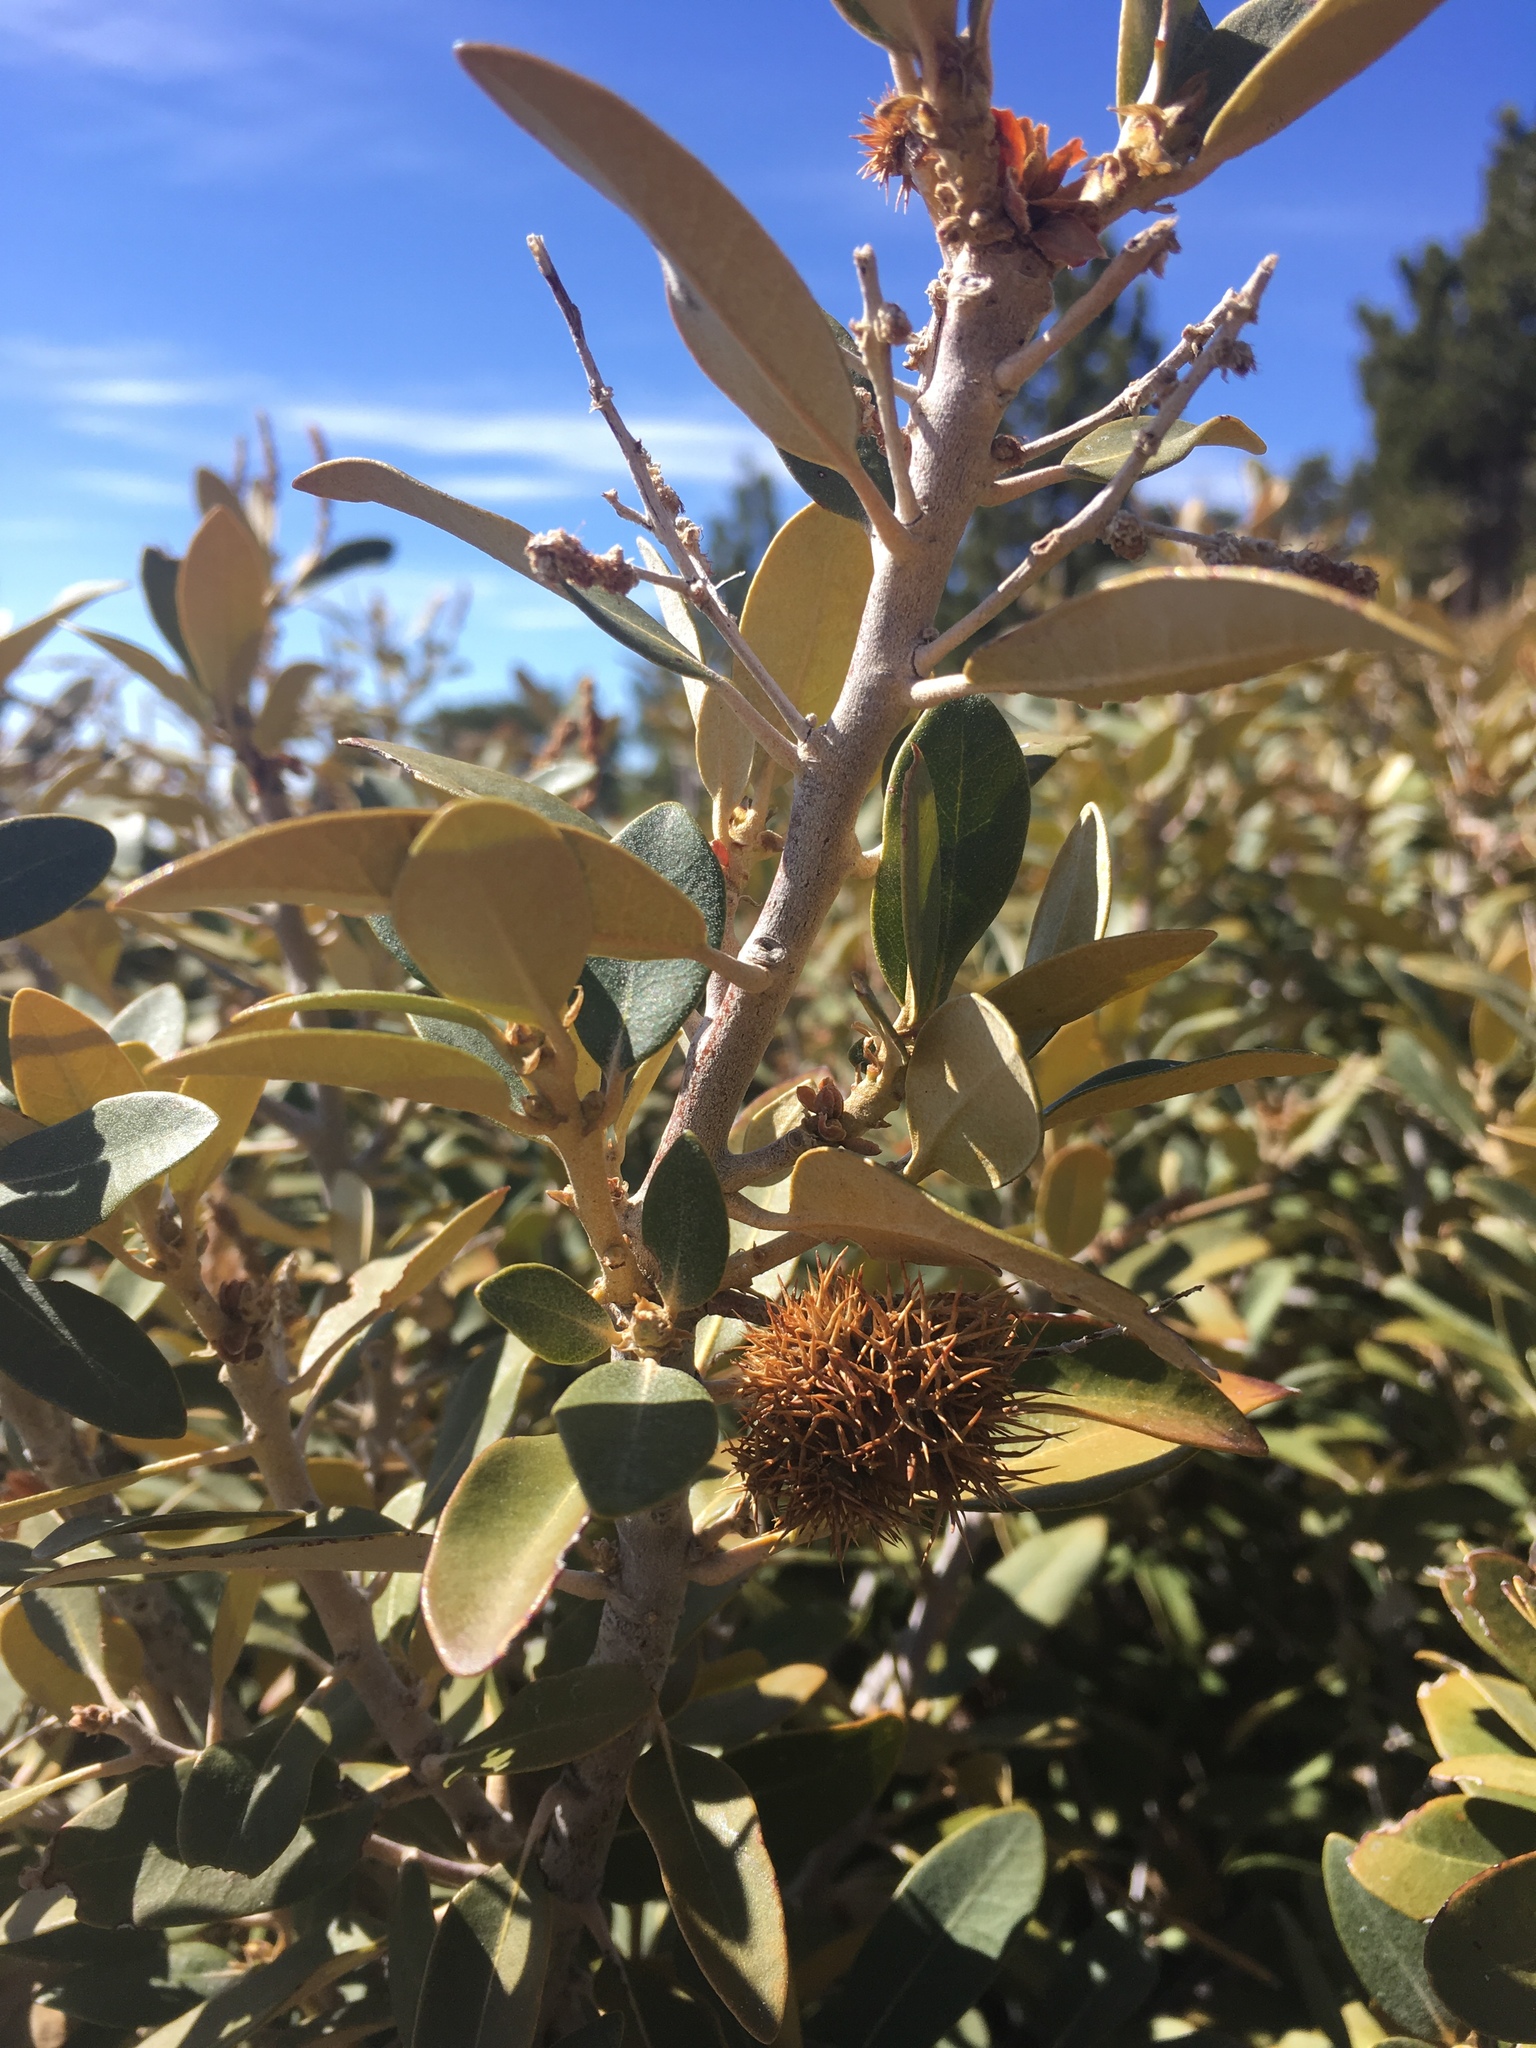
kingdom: Plantae
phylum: Tracheophyta
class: Magnoliopsida
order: Fagales
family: Fagaceae
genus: Chrysolepis
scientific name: Chrysolepis sempervirens
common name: Bush chinquapin
